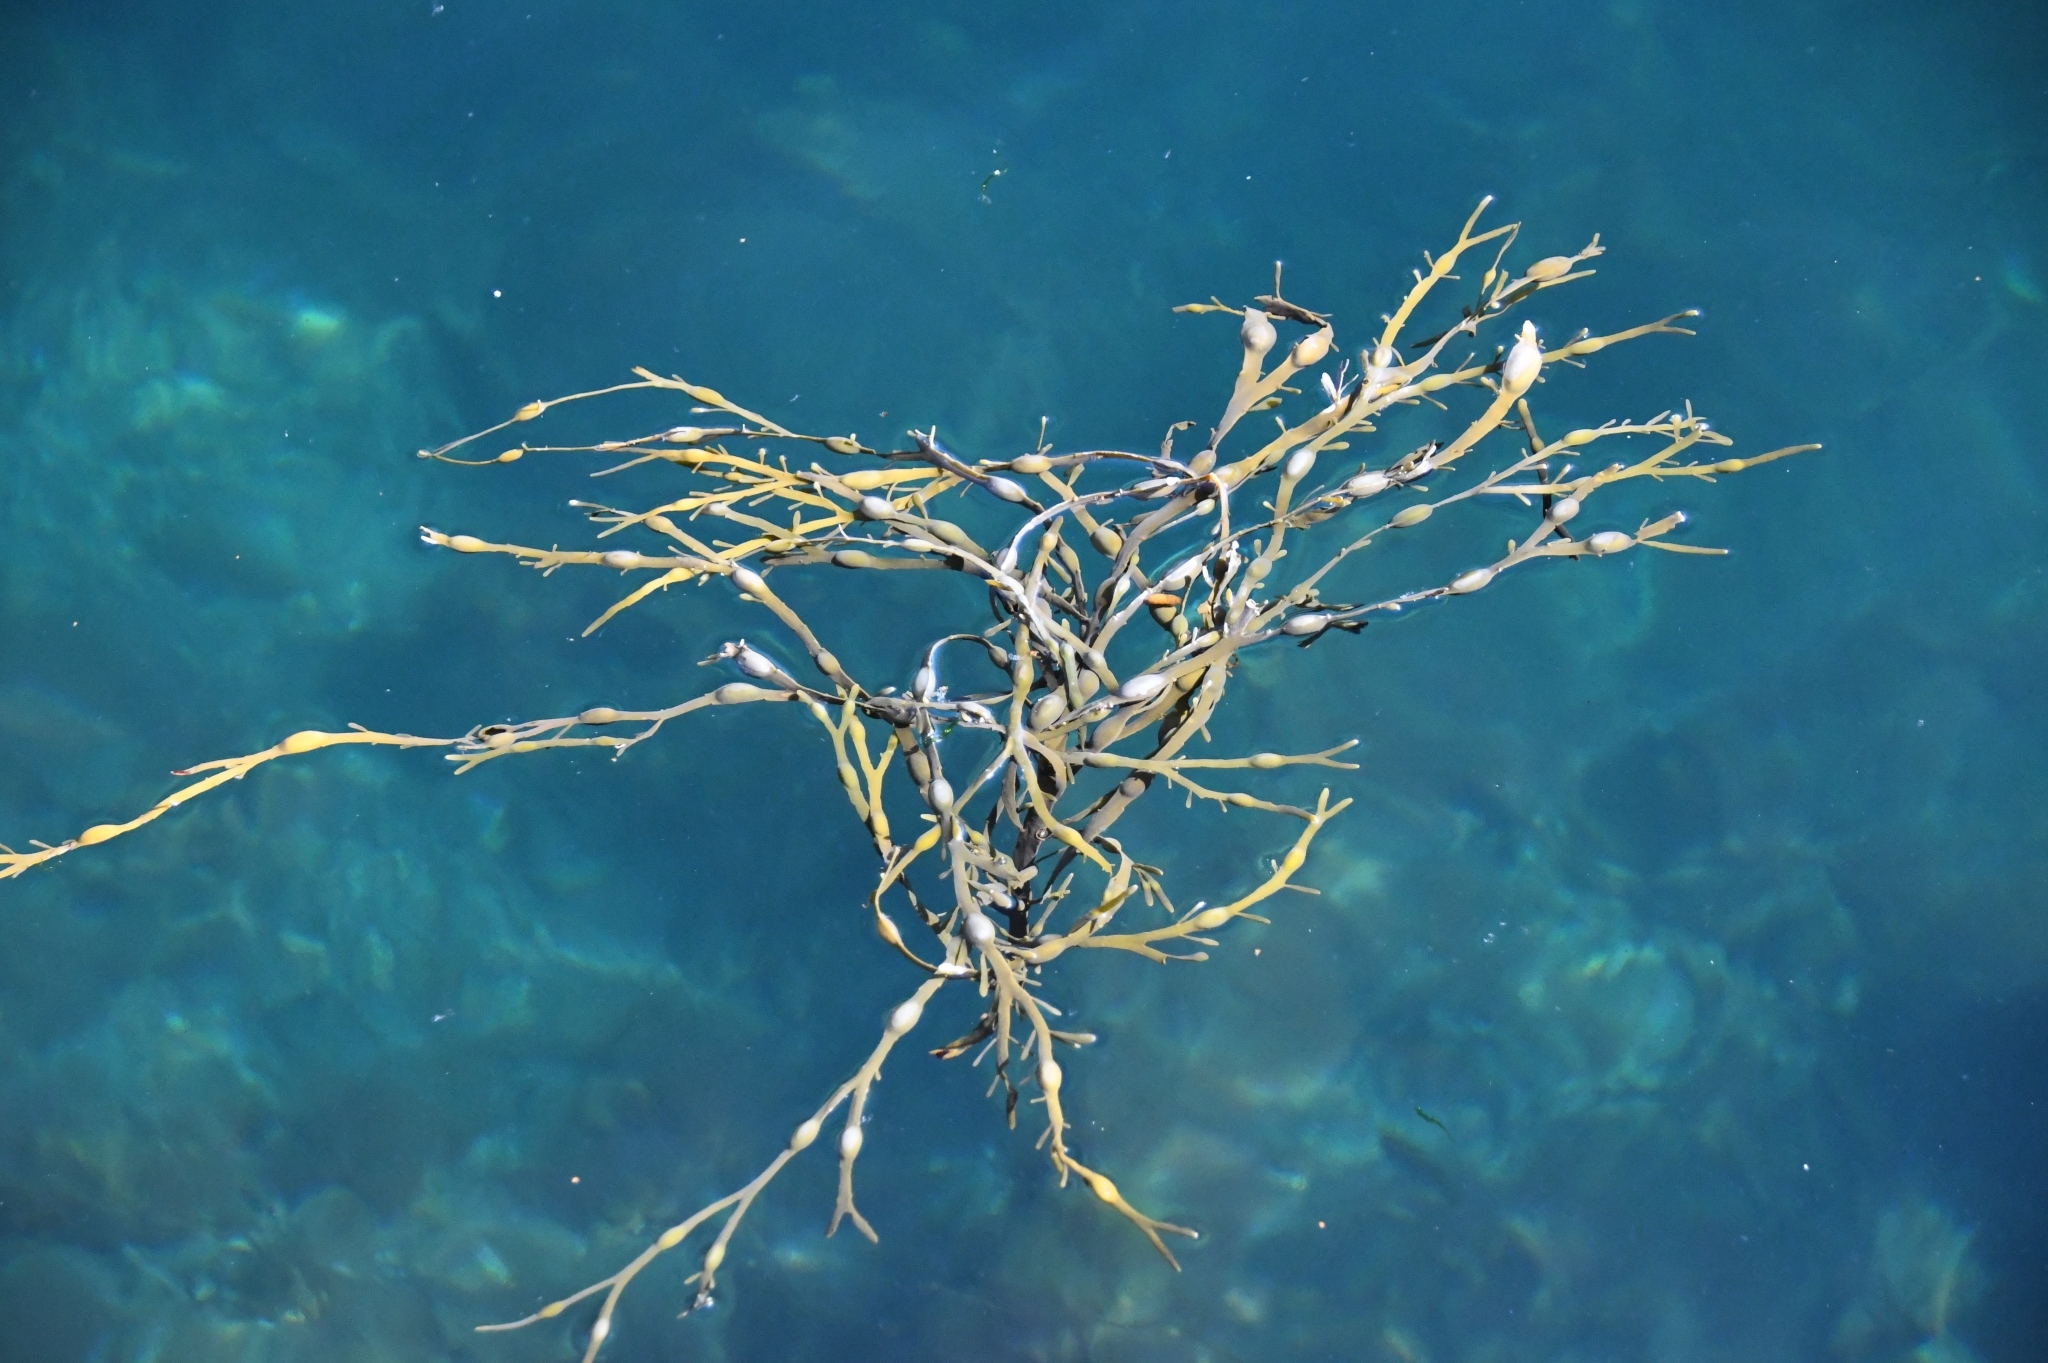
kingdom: Chromista
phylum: Ochrophyta
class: Phaeophyceae
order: Fucales
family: Fucaceae
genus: Ascophyllum
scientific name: Ascophyllum nodosum
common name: Knotted wrack
